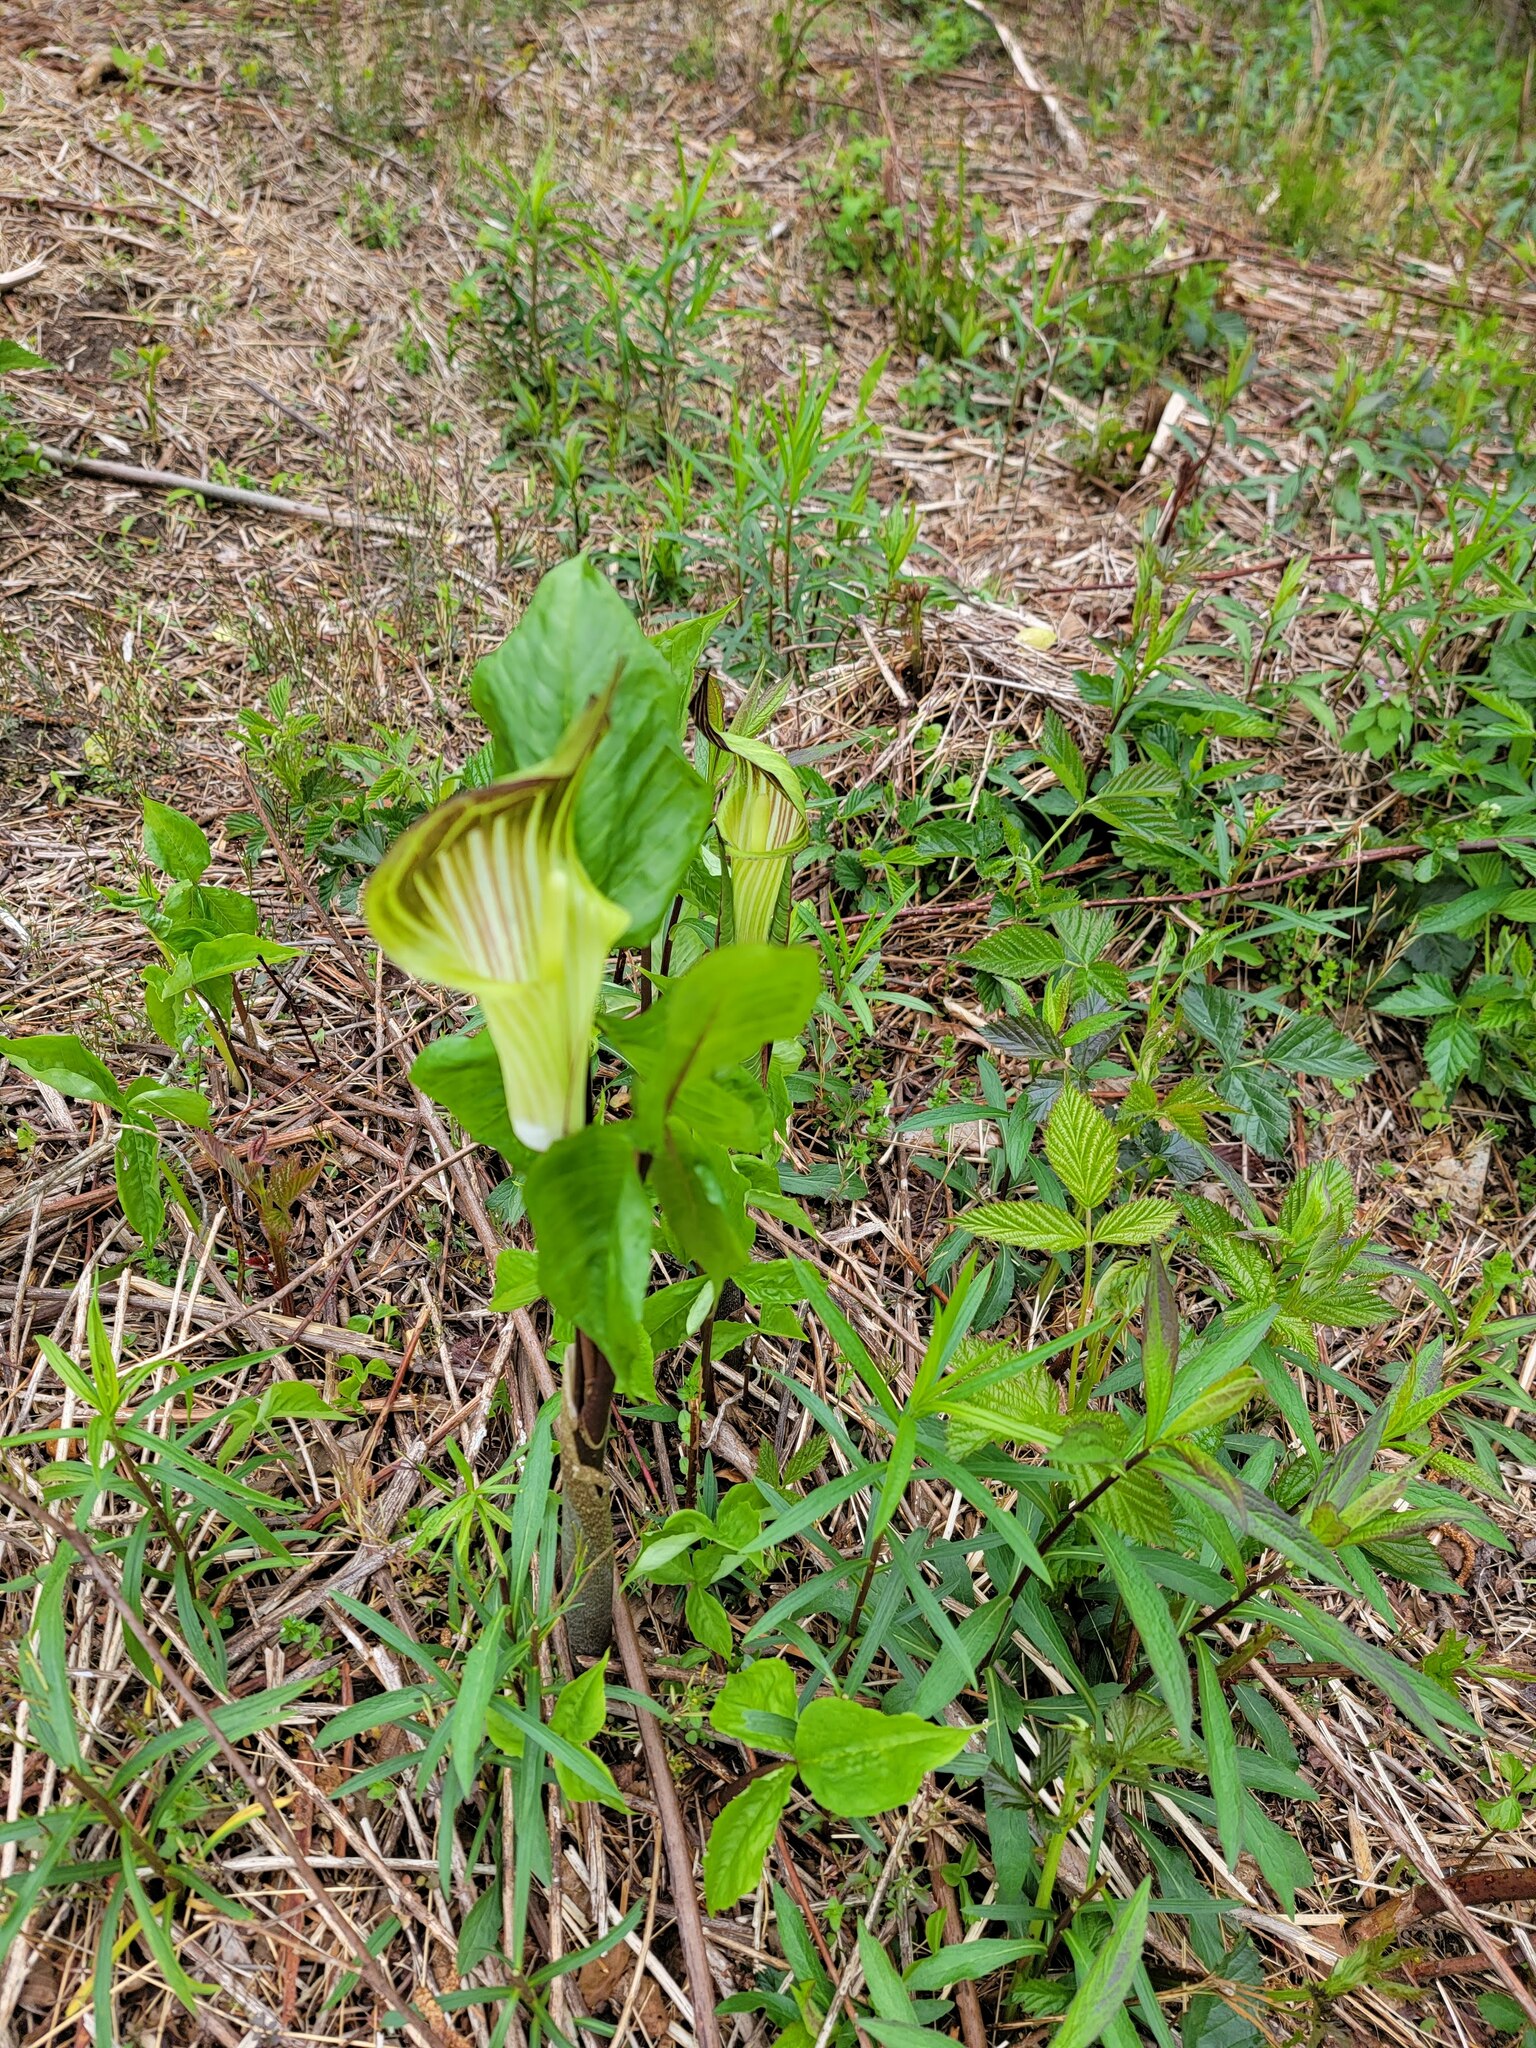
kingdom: Plantae
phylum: Tracheophyta
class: Liliopsida
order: Alismatales
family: Araceae
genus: Arisaema
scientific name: Arisaema triphyllum
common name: Jack-in-the-pulpit
